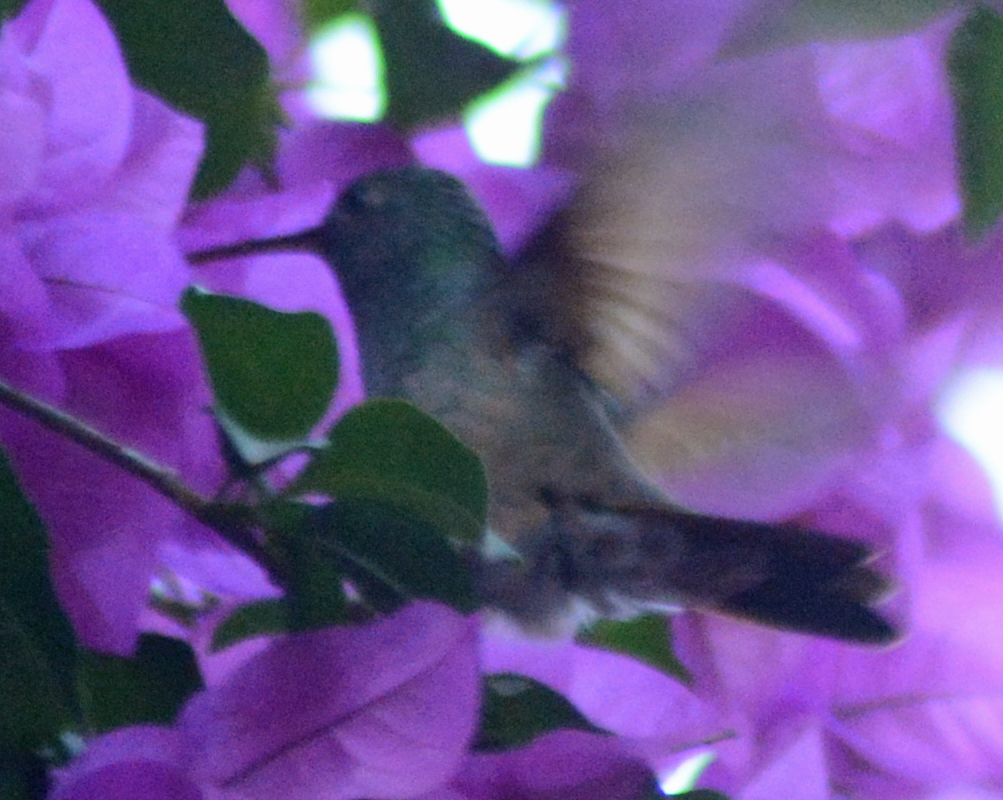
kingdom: Animalia
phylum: Chordata
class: Aves
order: Apodiformes
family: Trochilidae
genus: Saucerottia
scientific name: Saucerottia beryllina
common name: Berylline hummingbird
